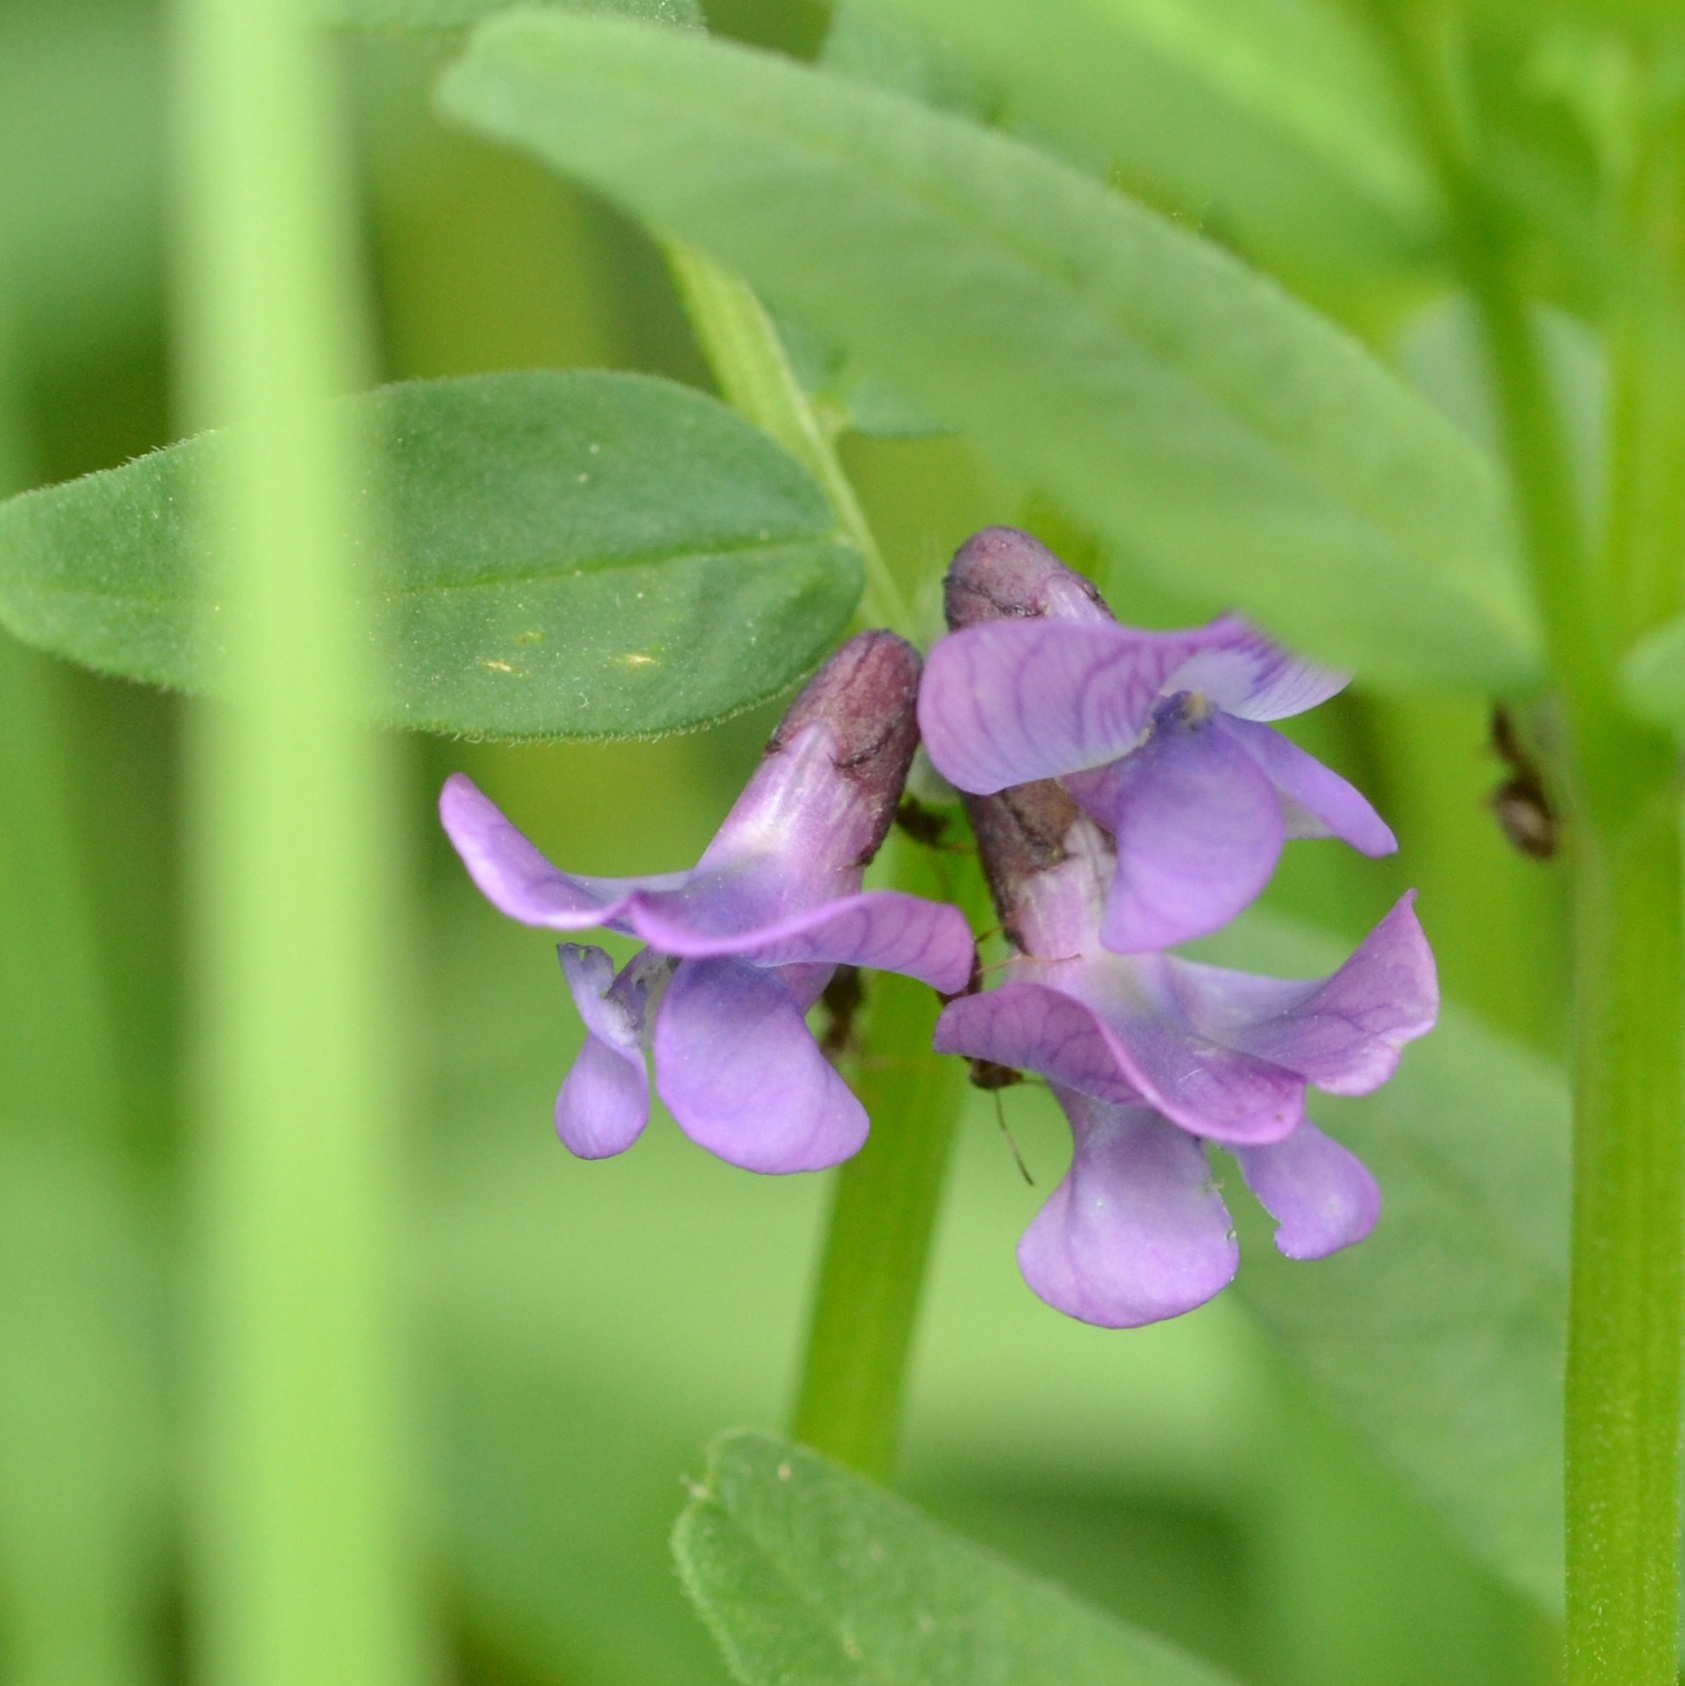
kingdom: Plantae
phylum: Tracheophyta
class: Magnoliopsida
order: Fabales
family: Fabaceae
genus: Vicia
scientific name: Vicia sepium
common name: Bush vetch
